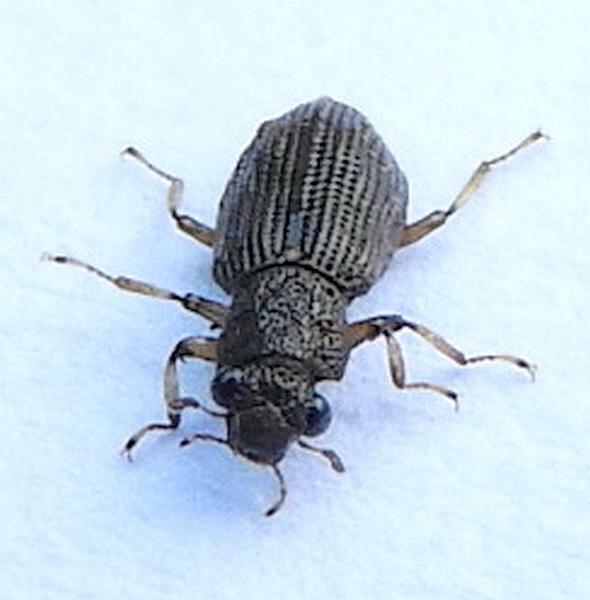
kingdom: Animalia
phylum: Arthropoda
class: Insecta
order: Coleoptera
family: Hydrochidae
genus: Hydrochus
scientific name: Hydrochus
